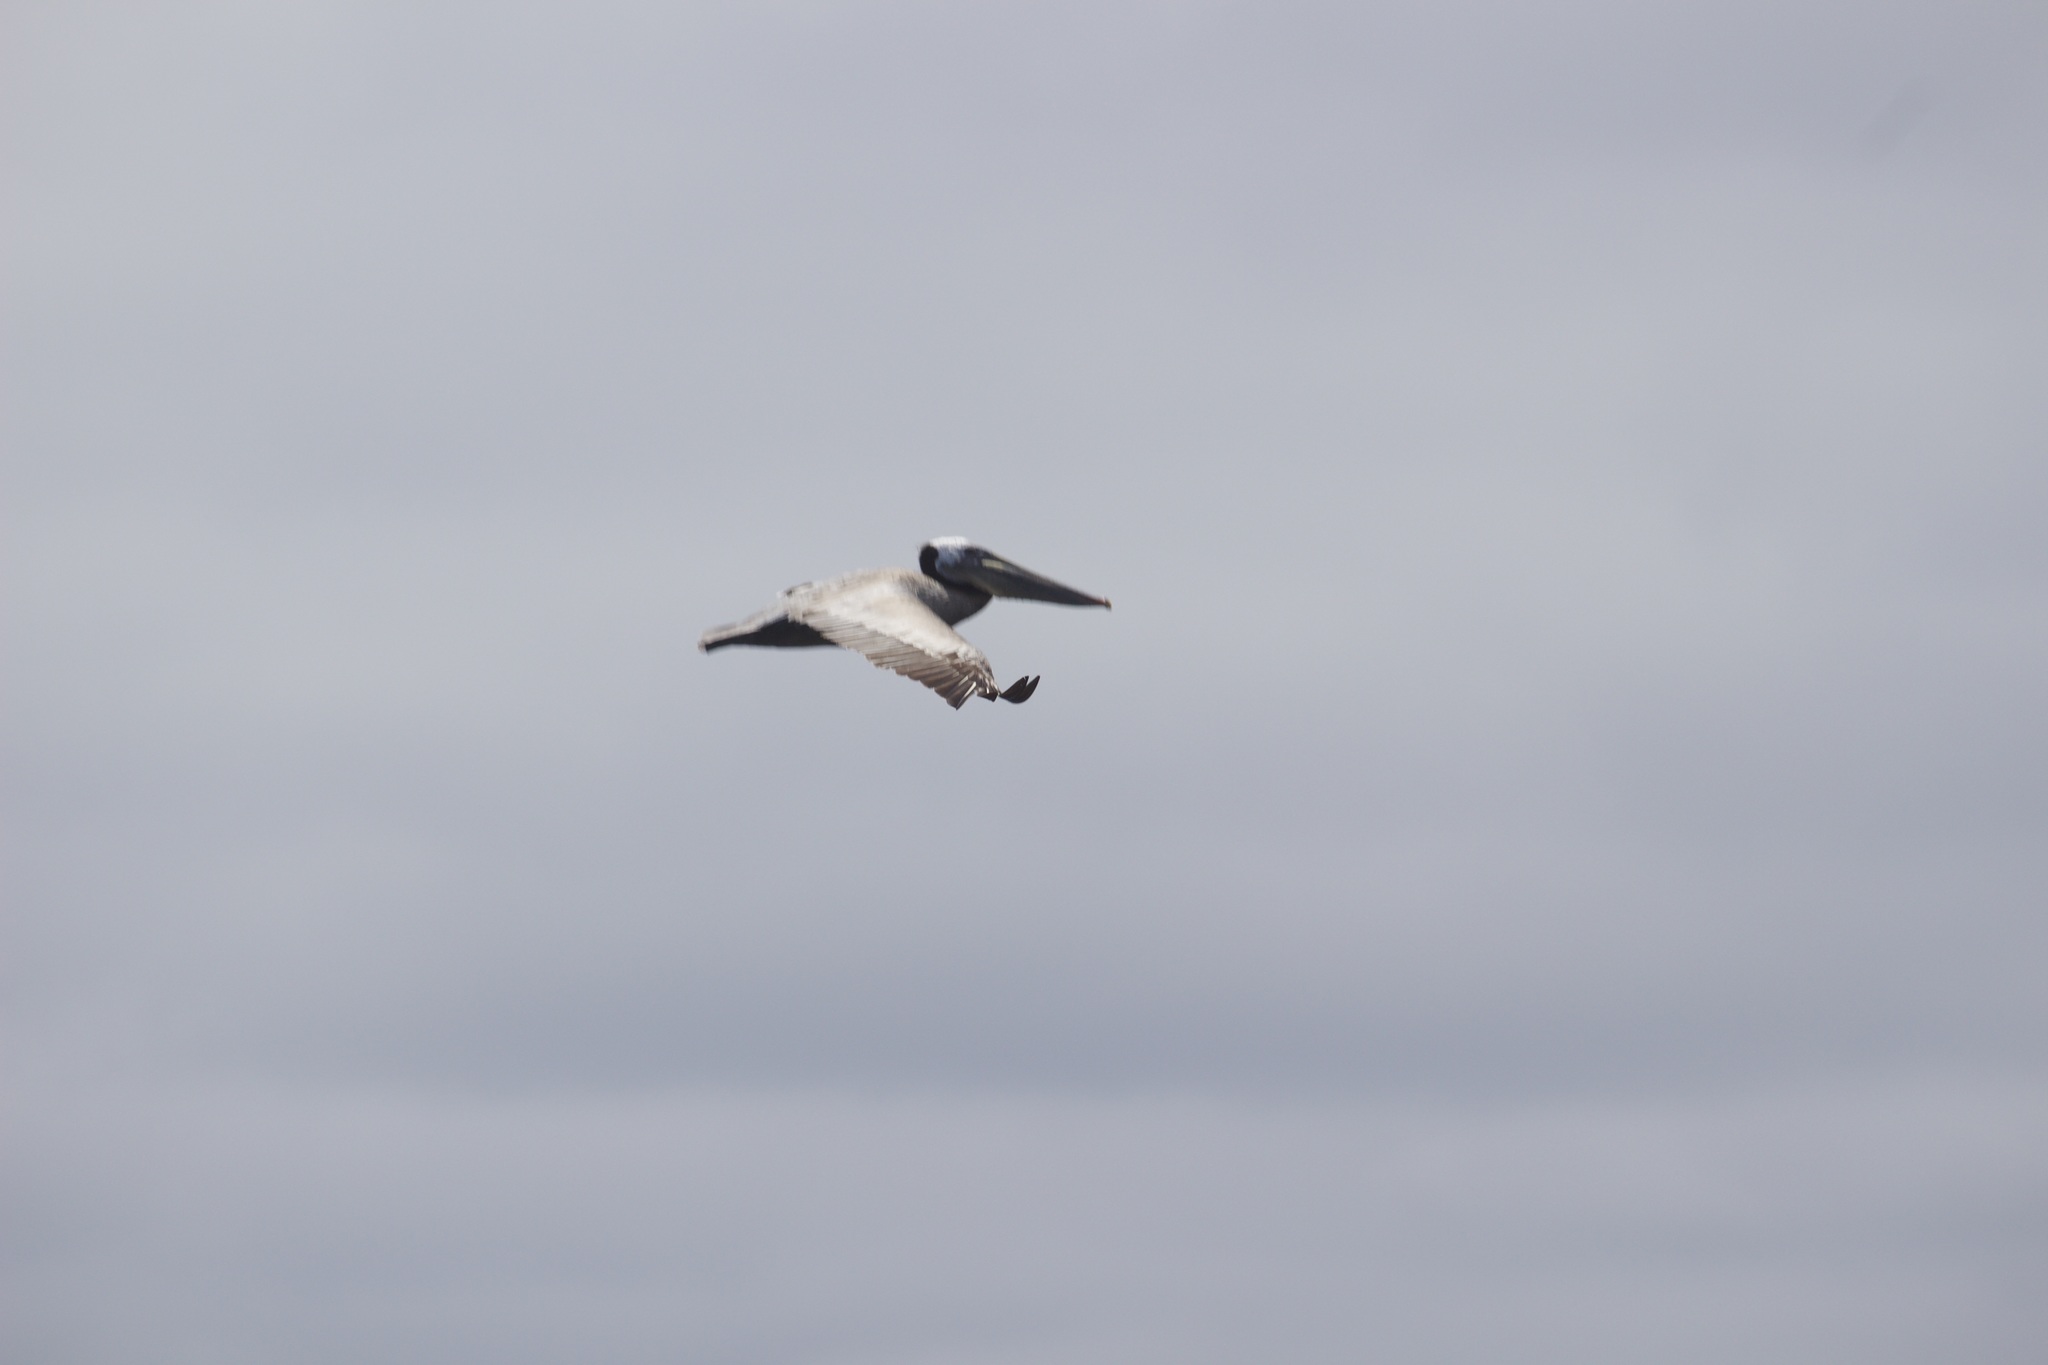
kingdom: Animalia
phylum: Chordata
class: Aves
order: Pelecaniformes
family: Pelecanidae
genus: Pelecanus
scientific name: Pelecanus occidentalis
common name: Brown pelican
